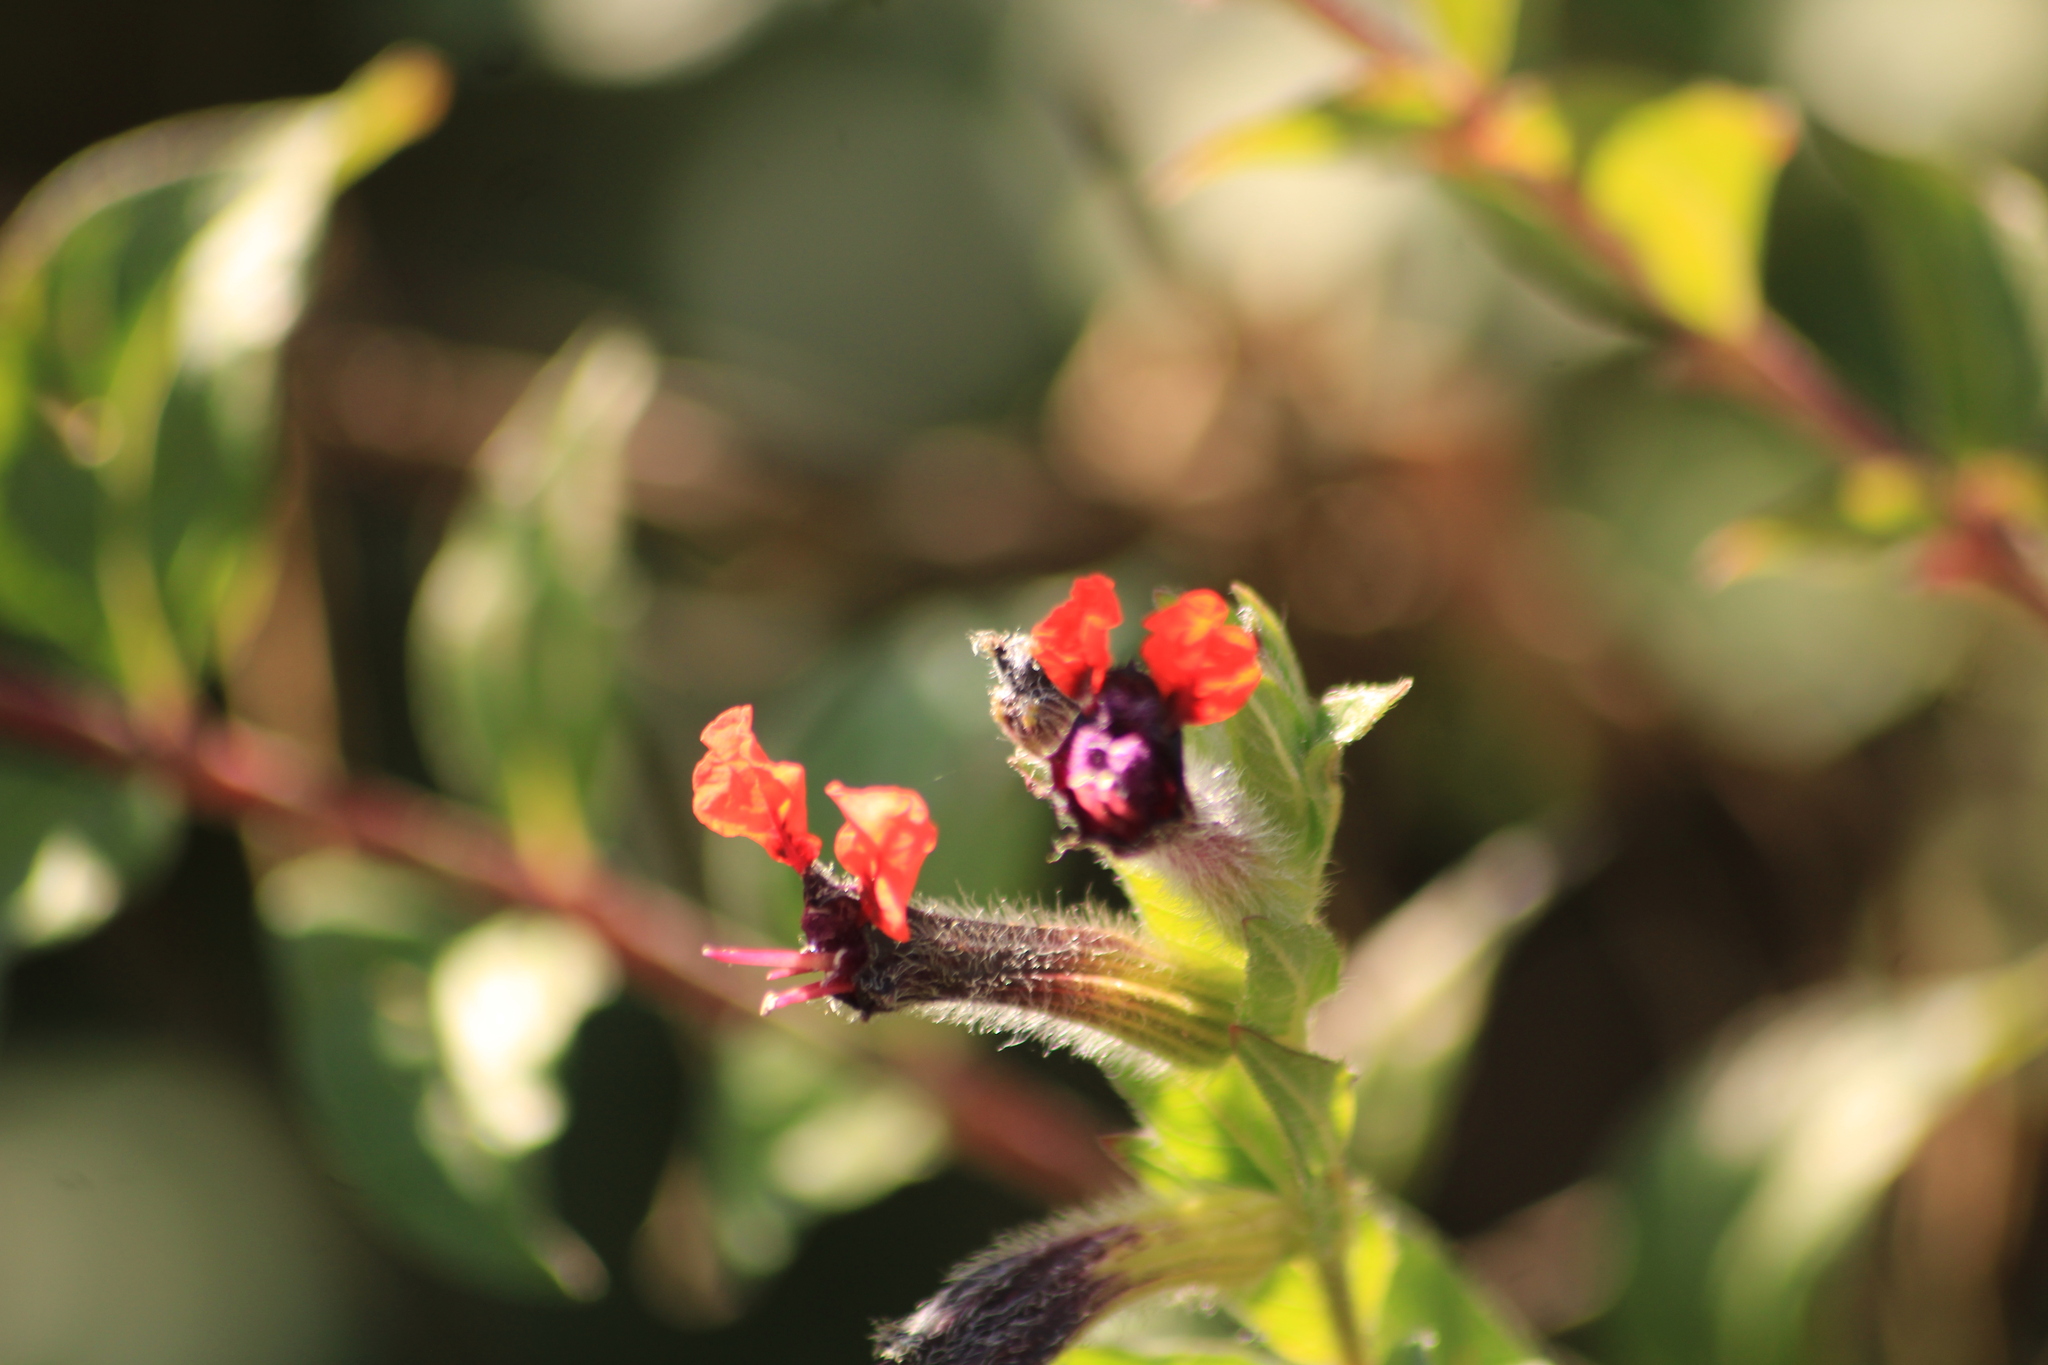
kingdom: Plantae
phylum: Tracheophyta
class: Magnoliopsida
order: Myrtales
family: Lythraceae
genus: Cuphea
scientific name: Cuphea llavea
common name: Tiny-mice
